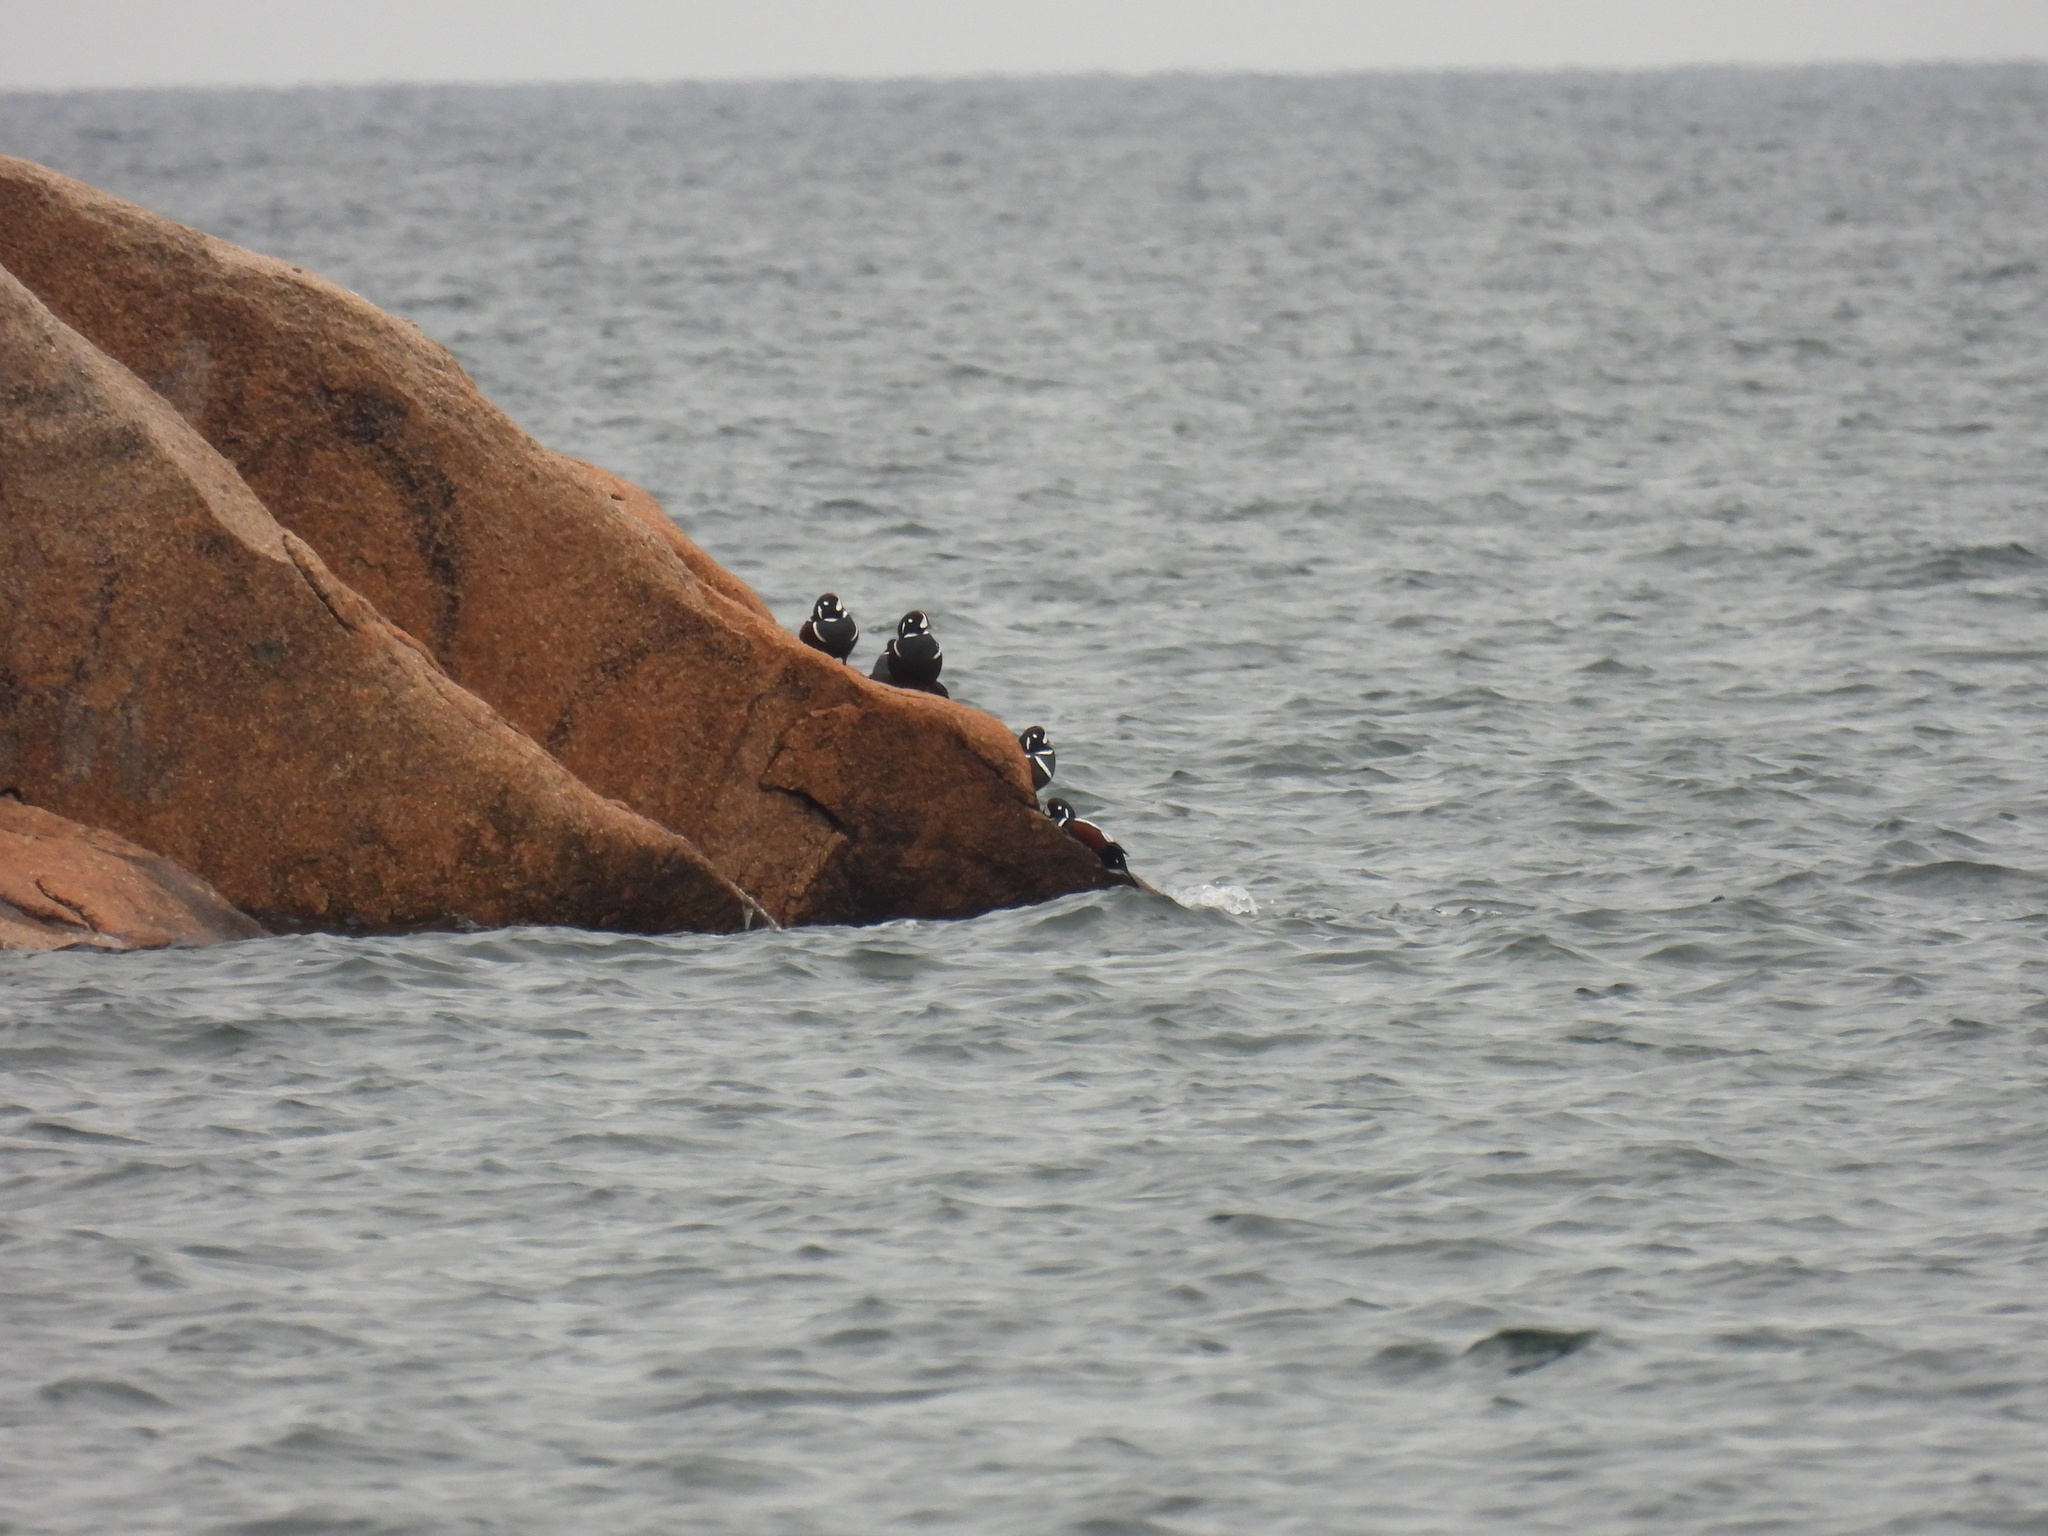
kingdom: Animalia
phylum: Chordata
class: Aves
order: Anseriformes
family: Anatidae
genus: Histrionicus
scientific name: Histrionicus histrionicus
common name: Harlequin duck
